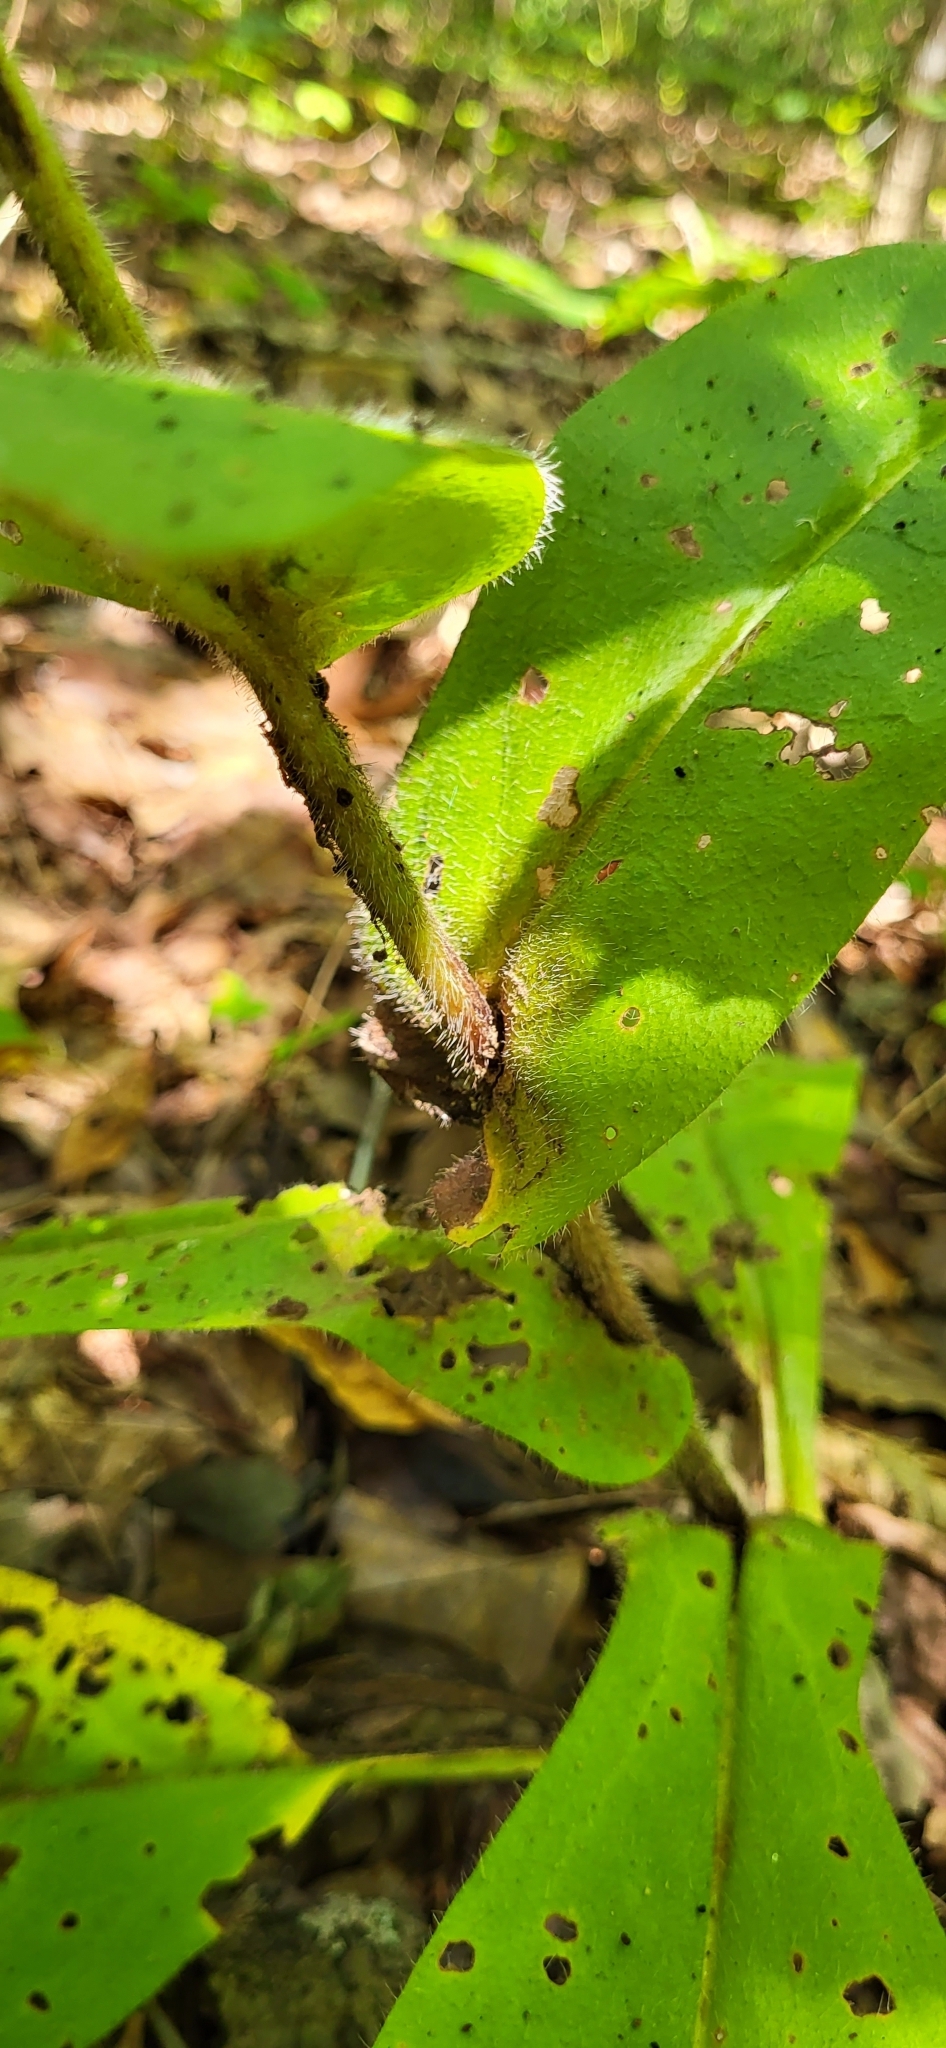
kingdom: Plantae
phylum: Tracheophyta
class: Magnoliopsida
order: Boraginales
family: Boraginaceae
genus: Andersonglossum
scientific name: Andersonglossum virginianum
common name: Wild comfrey
